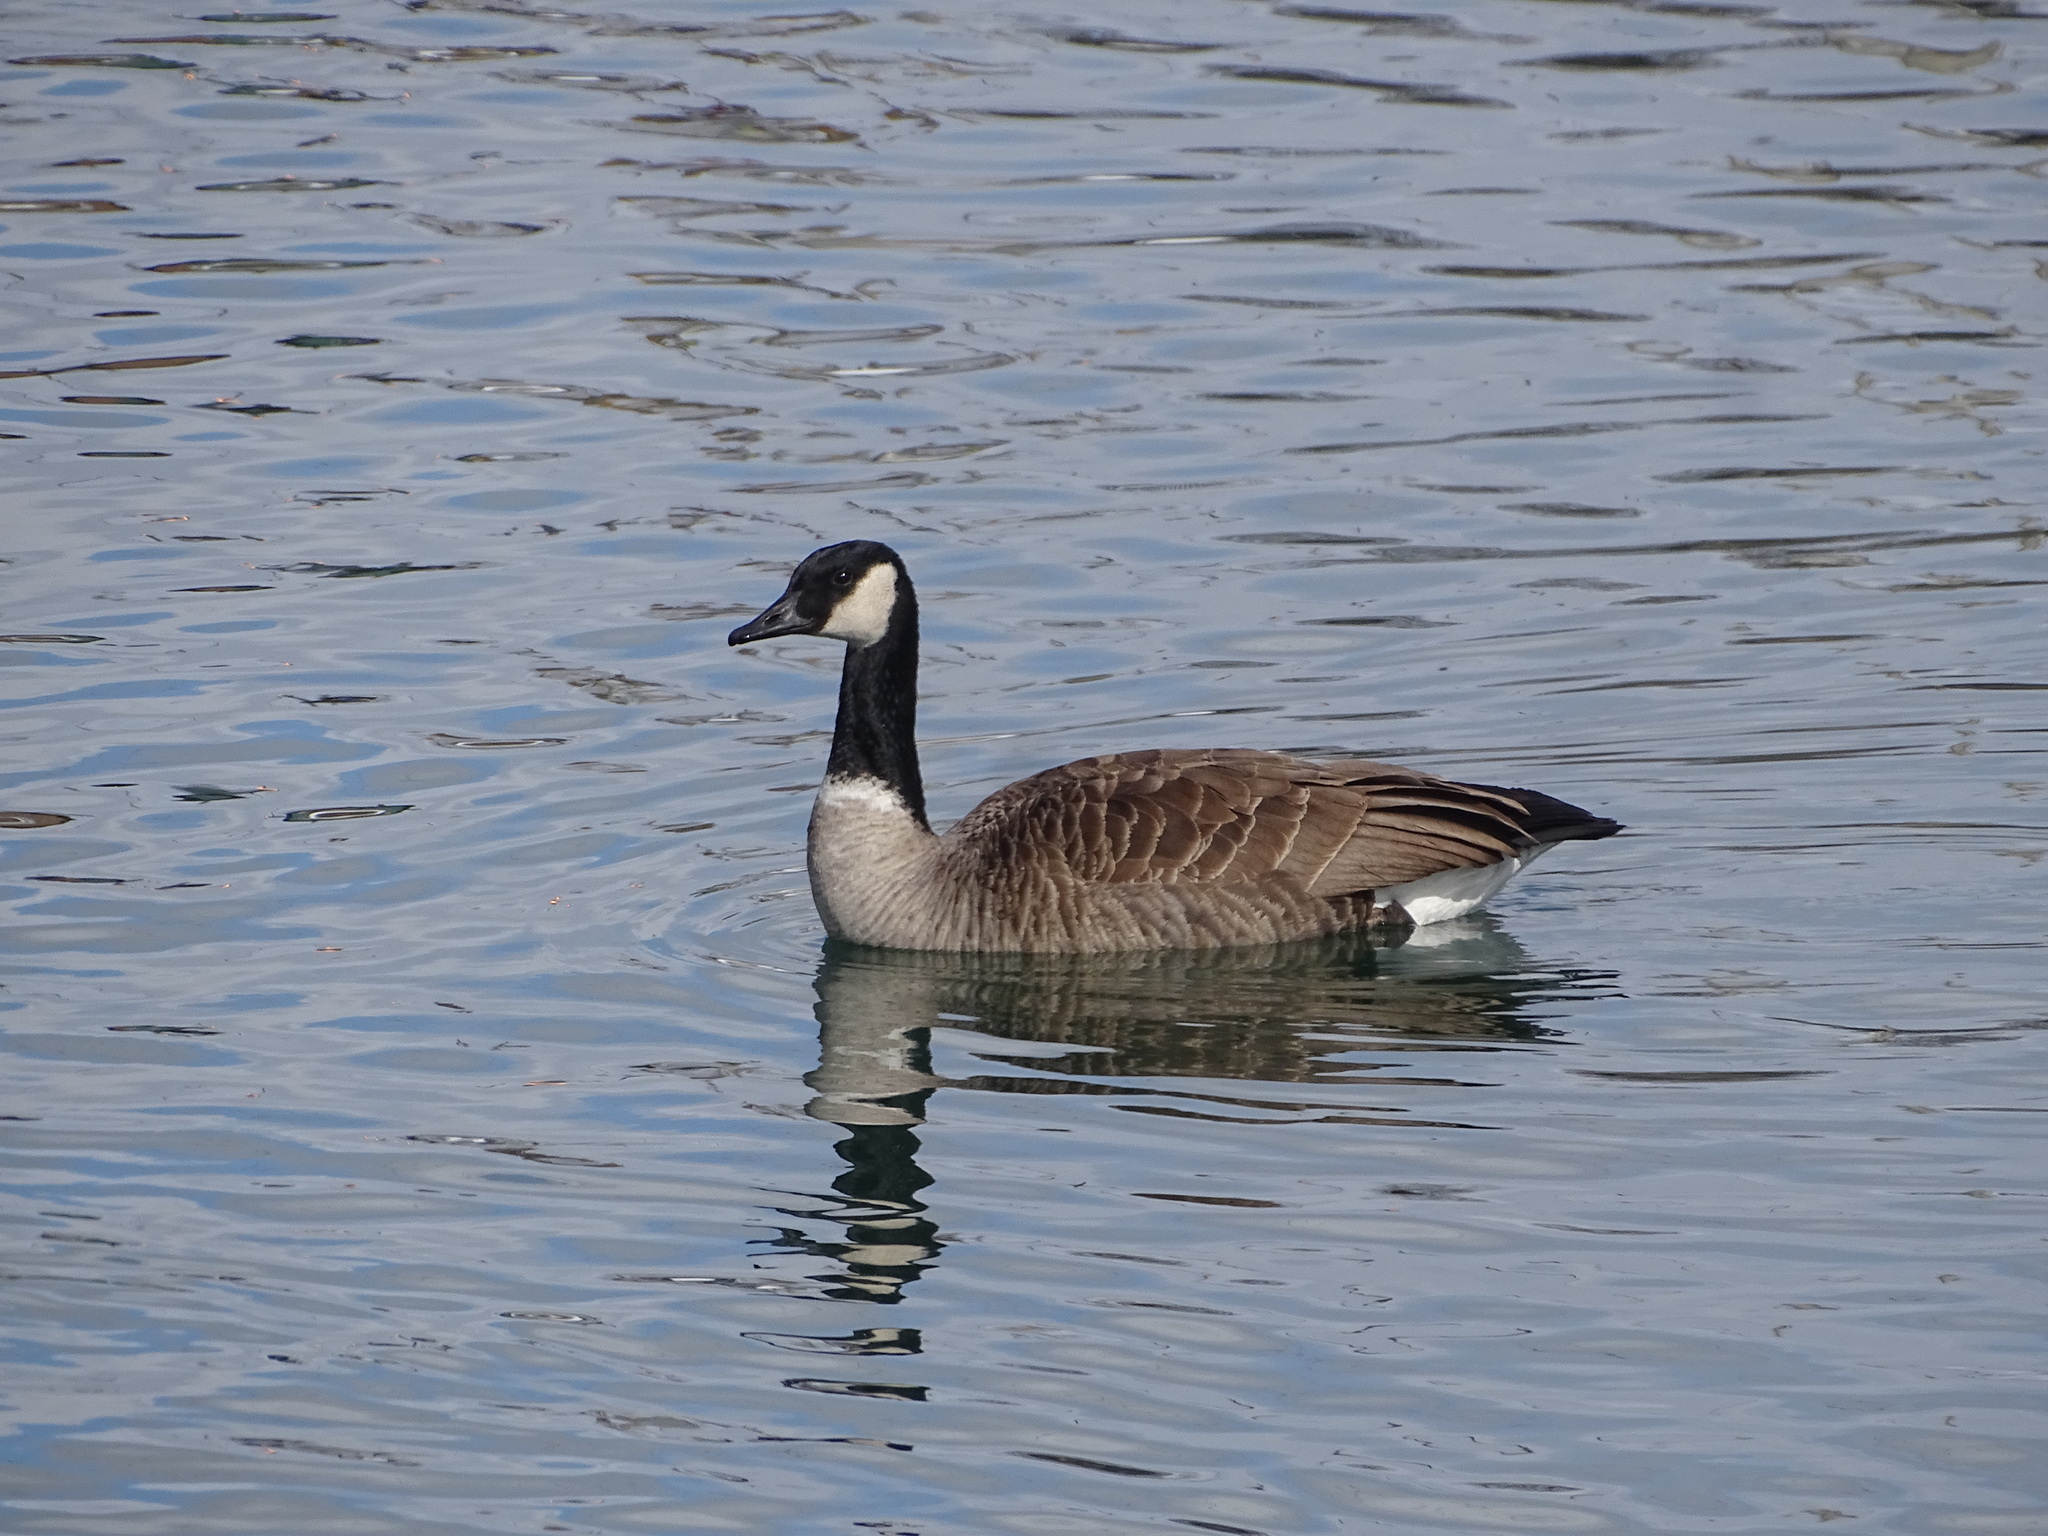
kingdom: Animalia
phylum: Chordata
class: Aves
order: Anseriformes
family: Anatidae
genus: Branta
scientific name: Branta canadensis
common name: Canada goose
